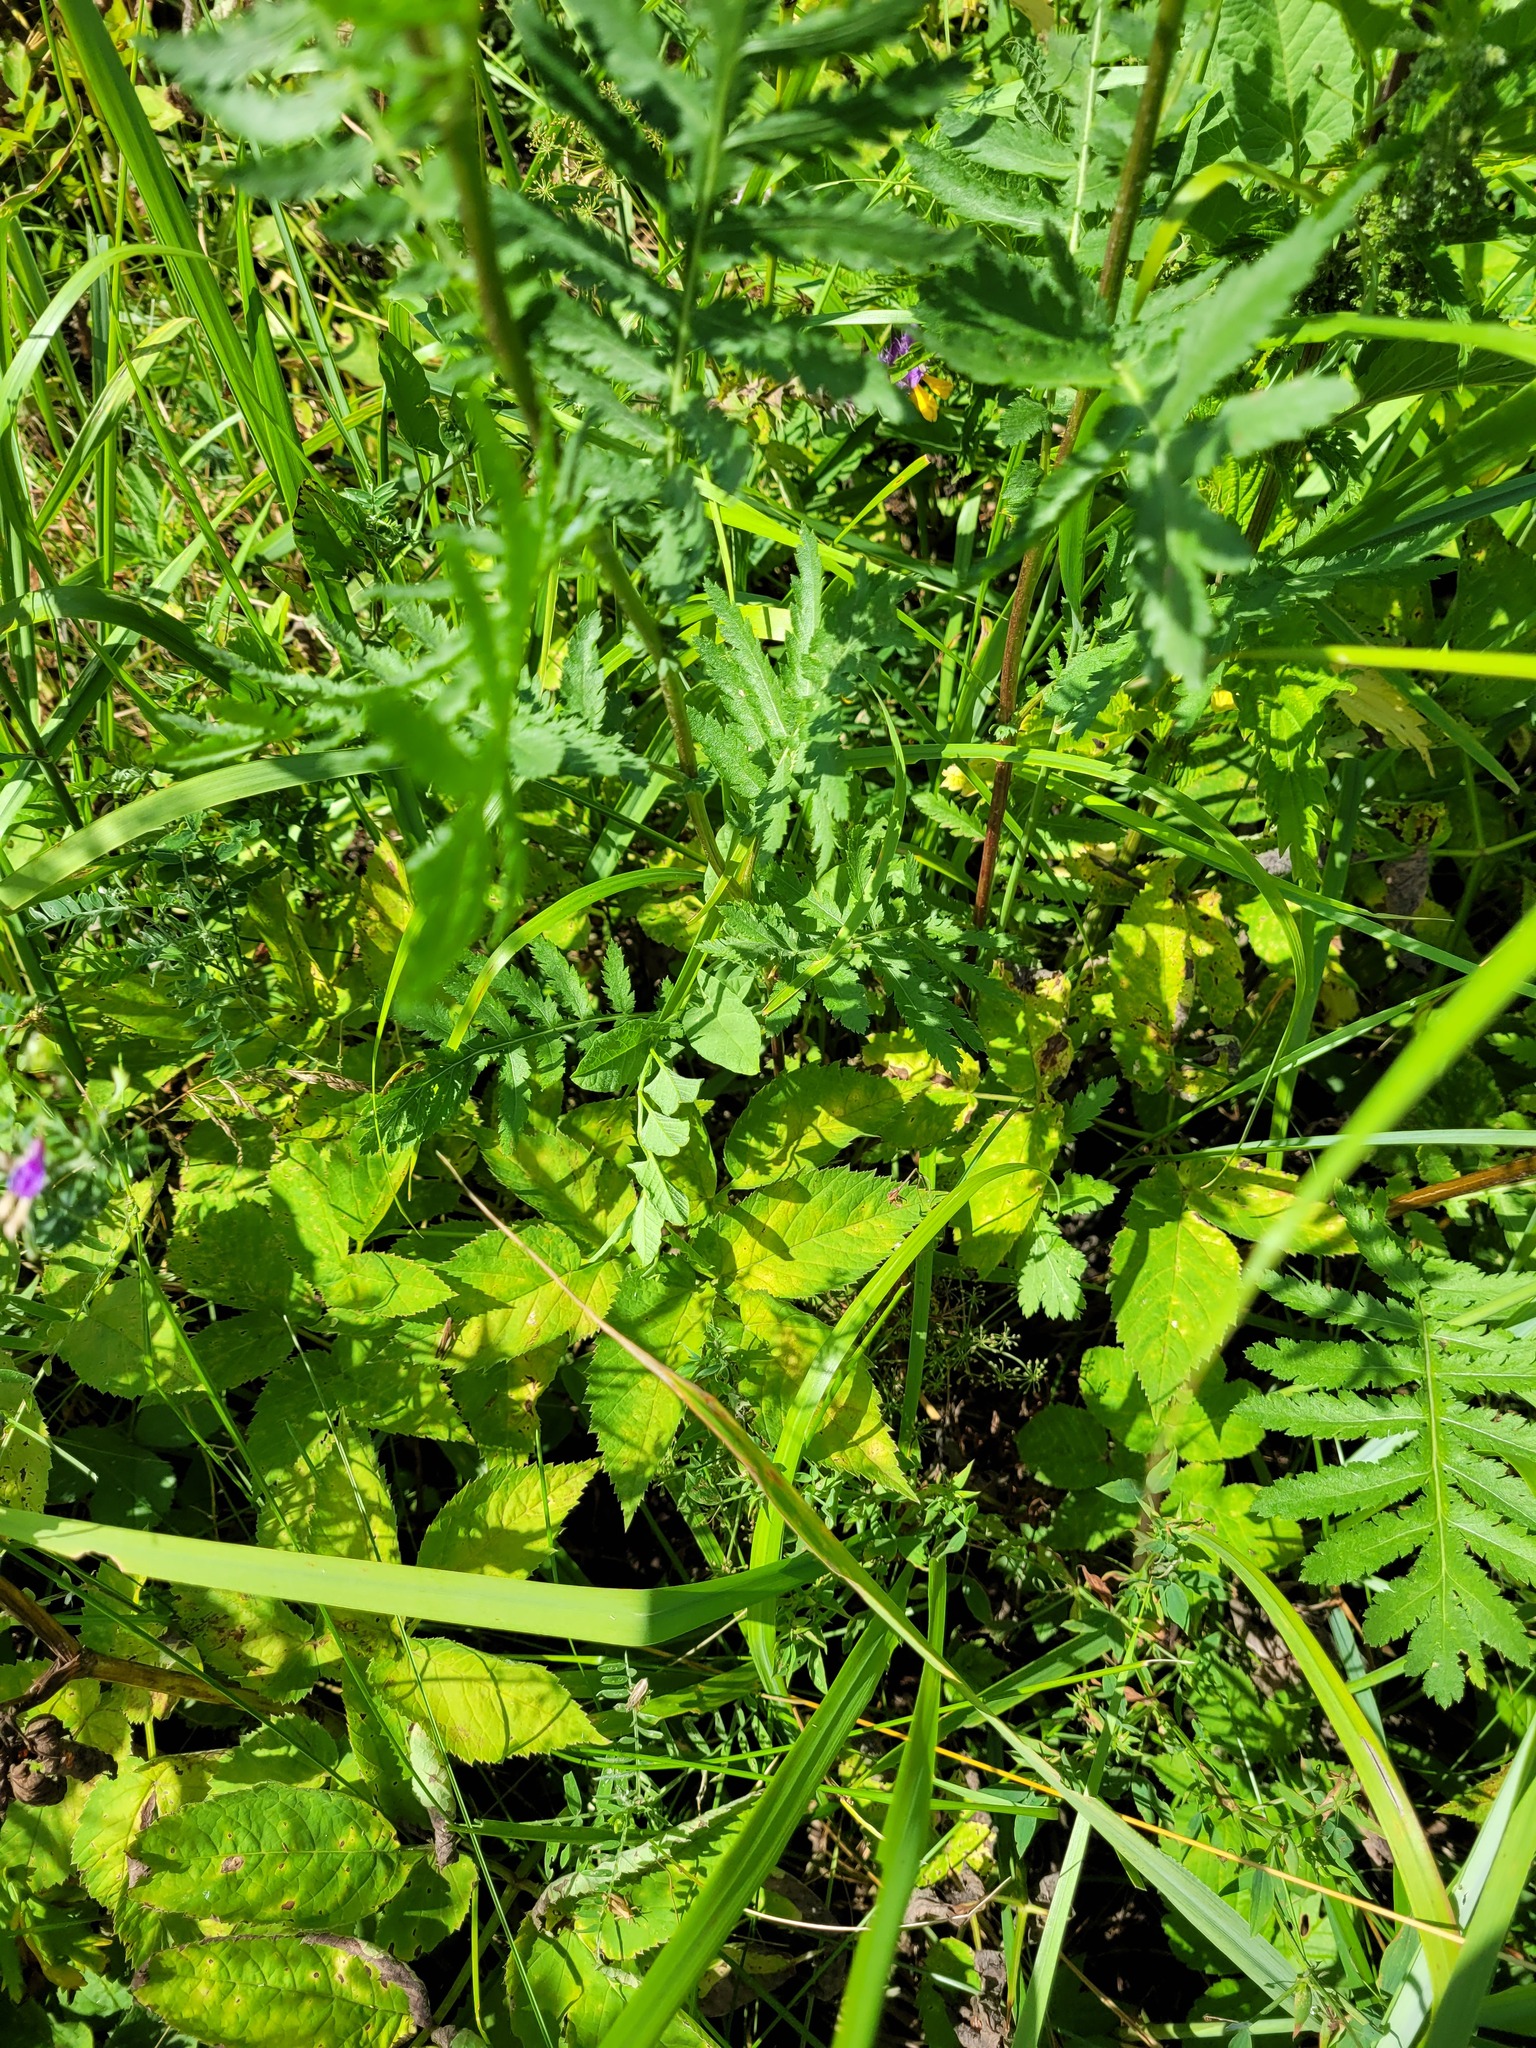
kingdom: Plantae
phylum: Tracheophyta
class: Magnoliopsida
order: Apiales
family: Apiaceae
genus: Aegopodium
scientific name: Aegopodium podagraria
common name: Ground-elder
